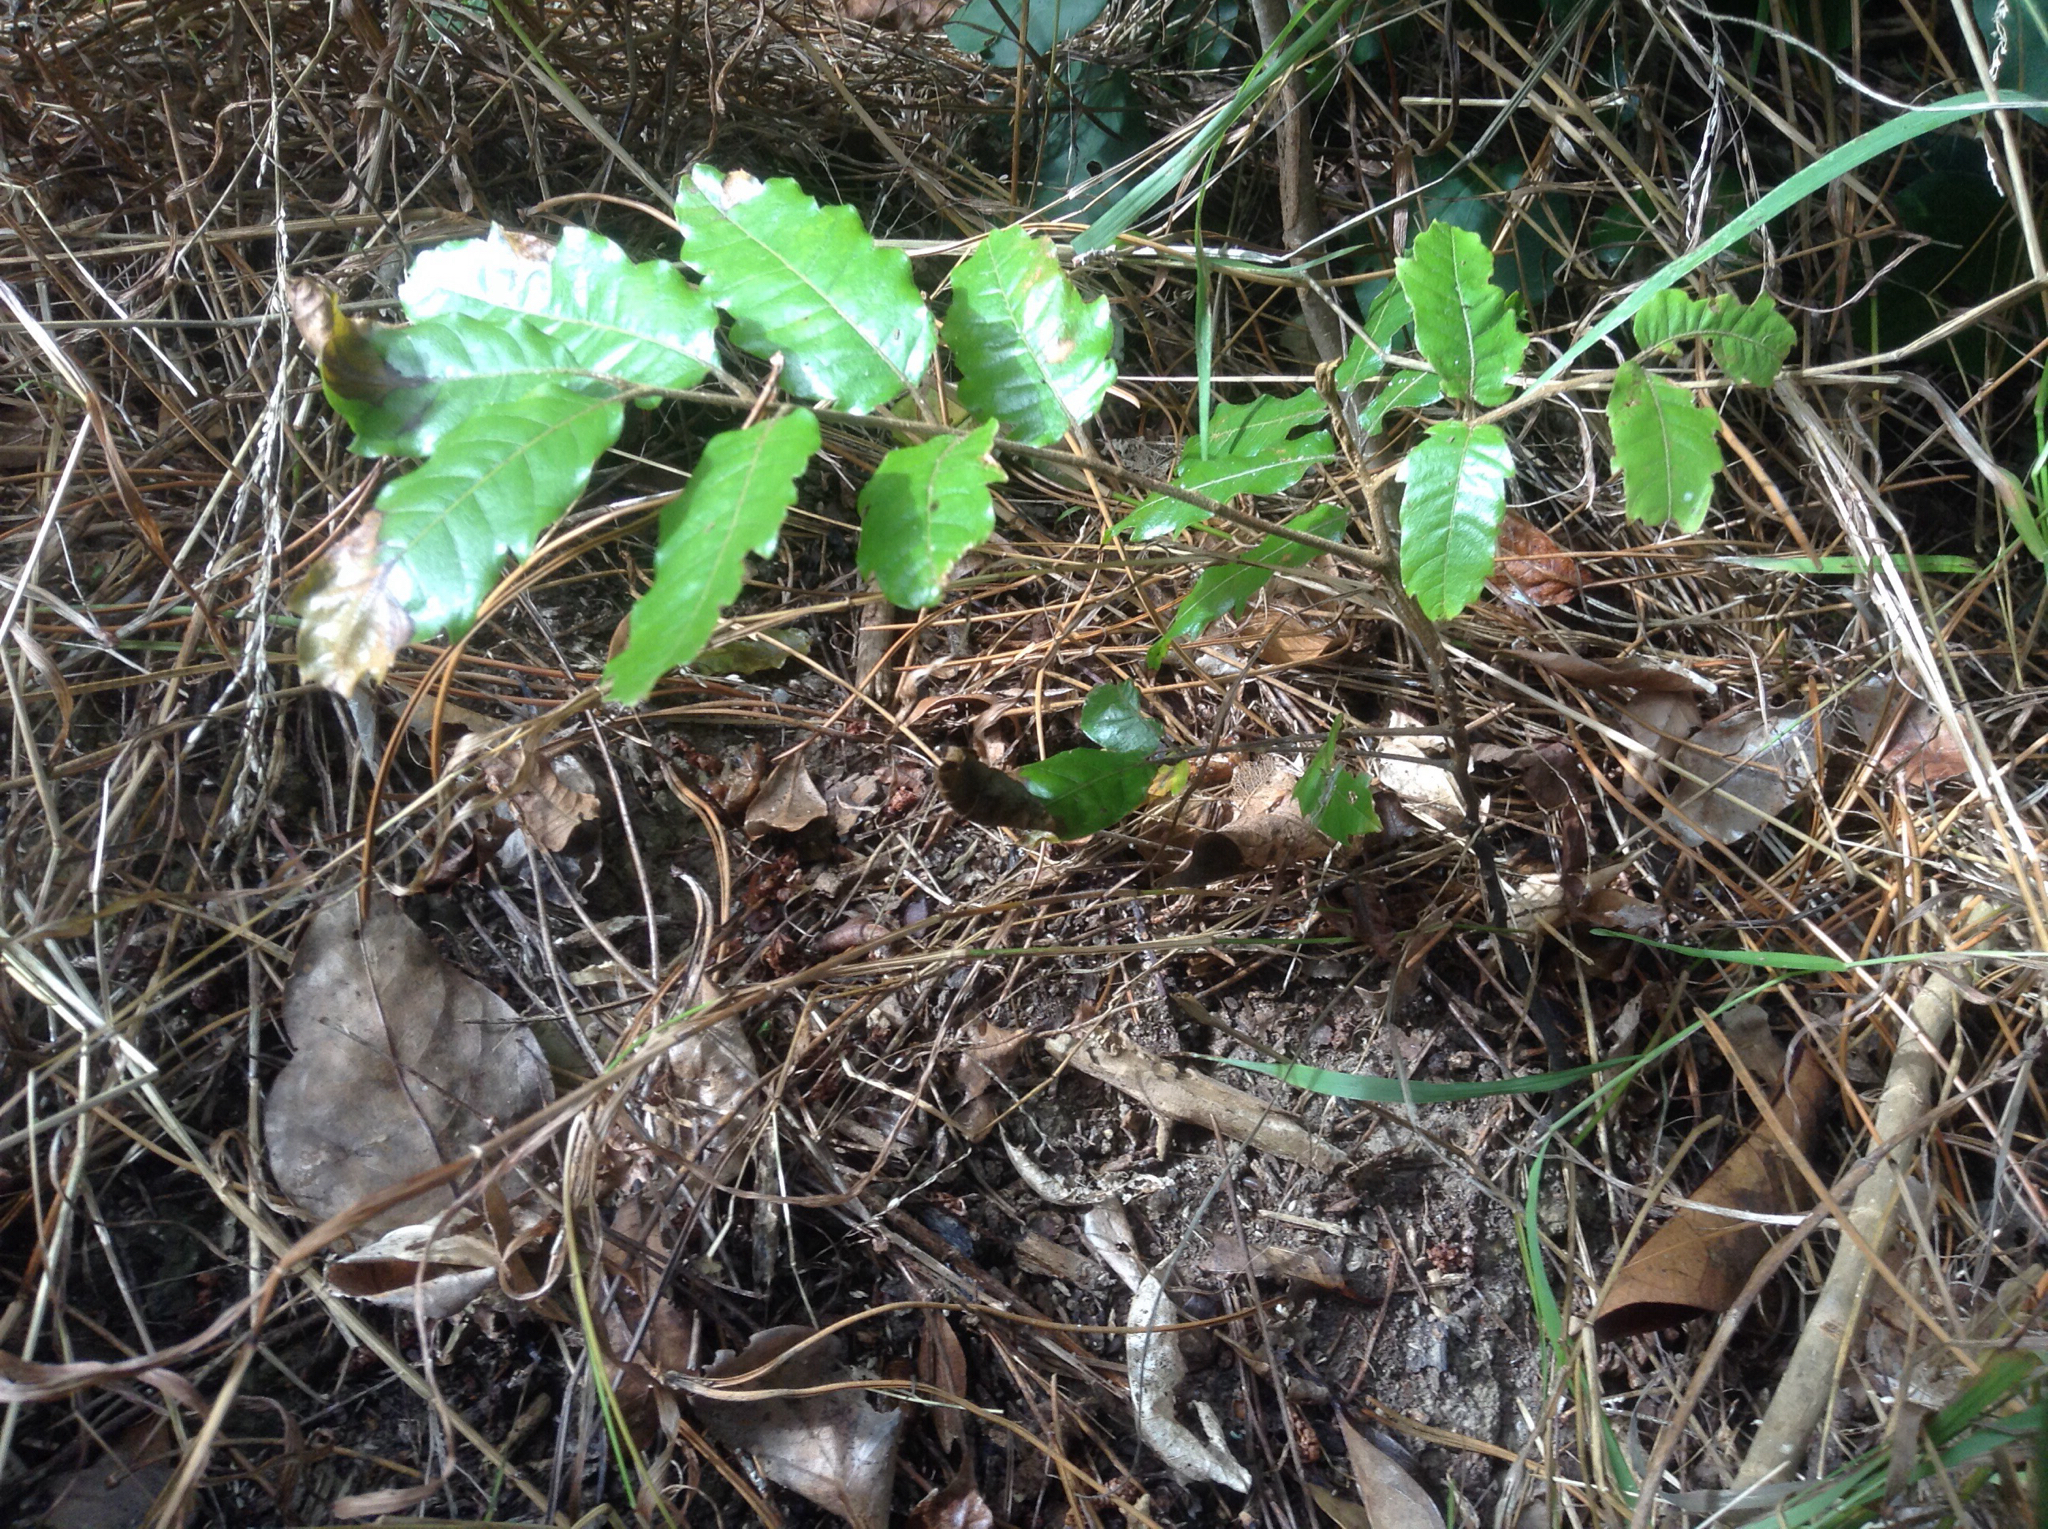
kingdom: Plantae
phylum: Tracheophyta
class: Magnoliopsida
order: Sapindales
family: Sapindaceae
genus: Alectryon
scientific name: Alectryon excelsus
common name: Three kings titoki
